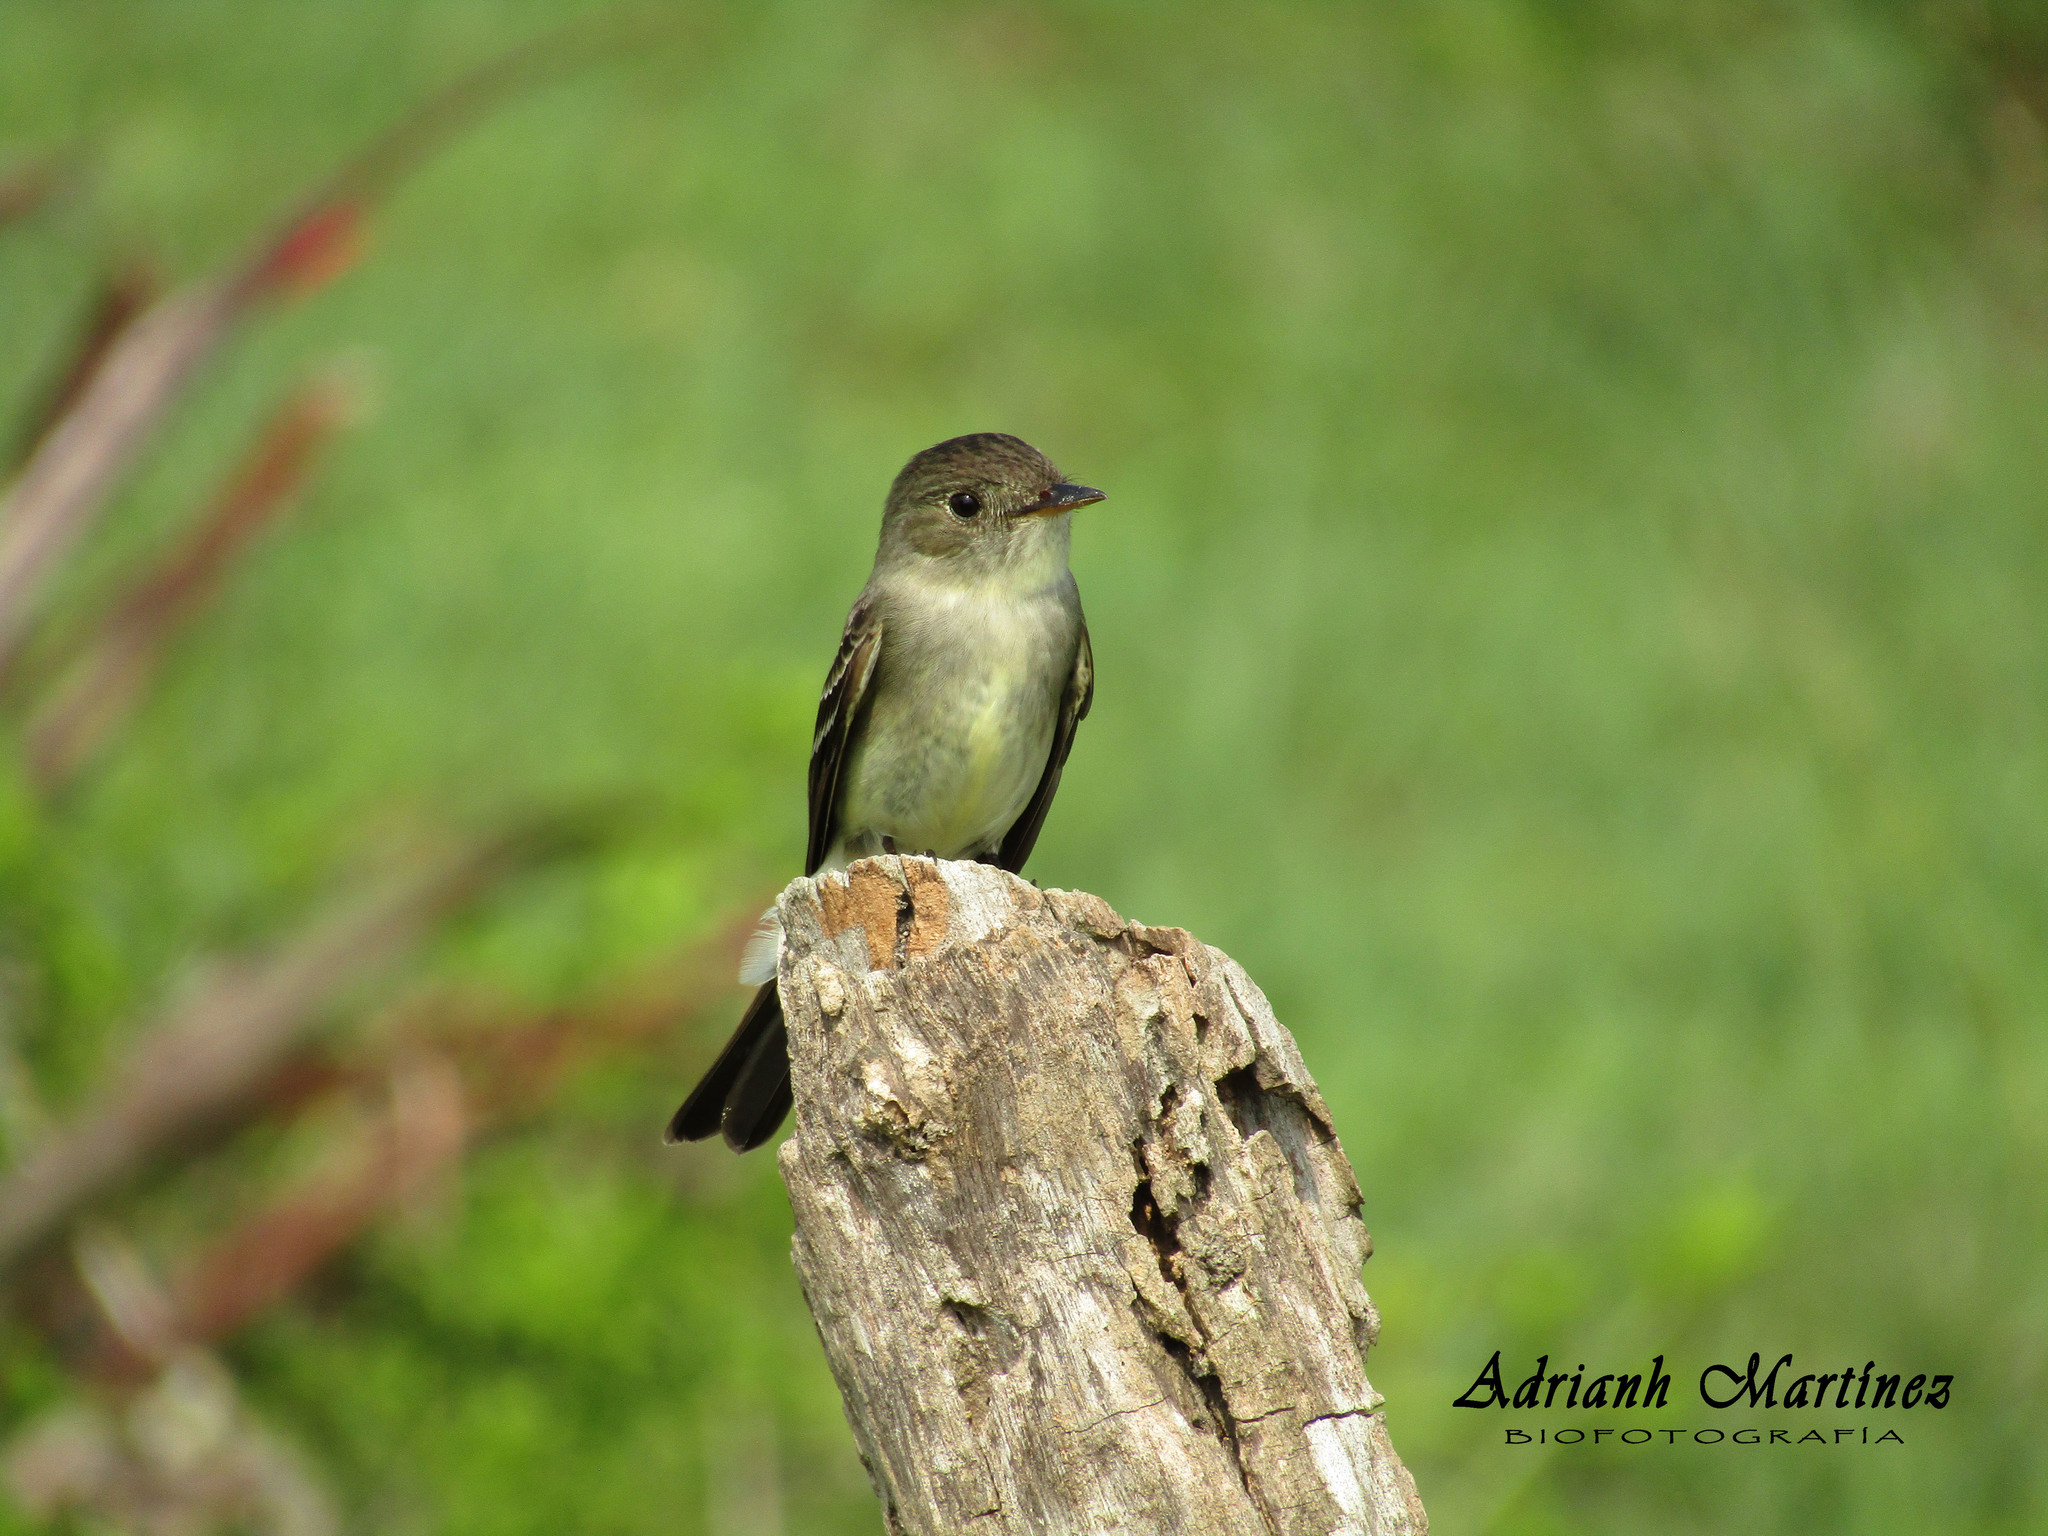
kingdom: Animalia
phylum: Chordata
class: Aves
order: Passeriformes
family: Tyrannidae
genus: Contopus
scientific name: Contopus virens
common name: Eastern wood-pewee
